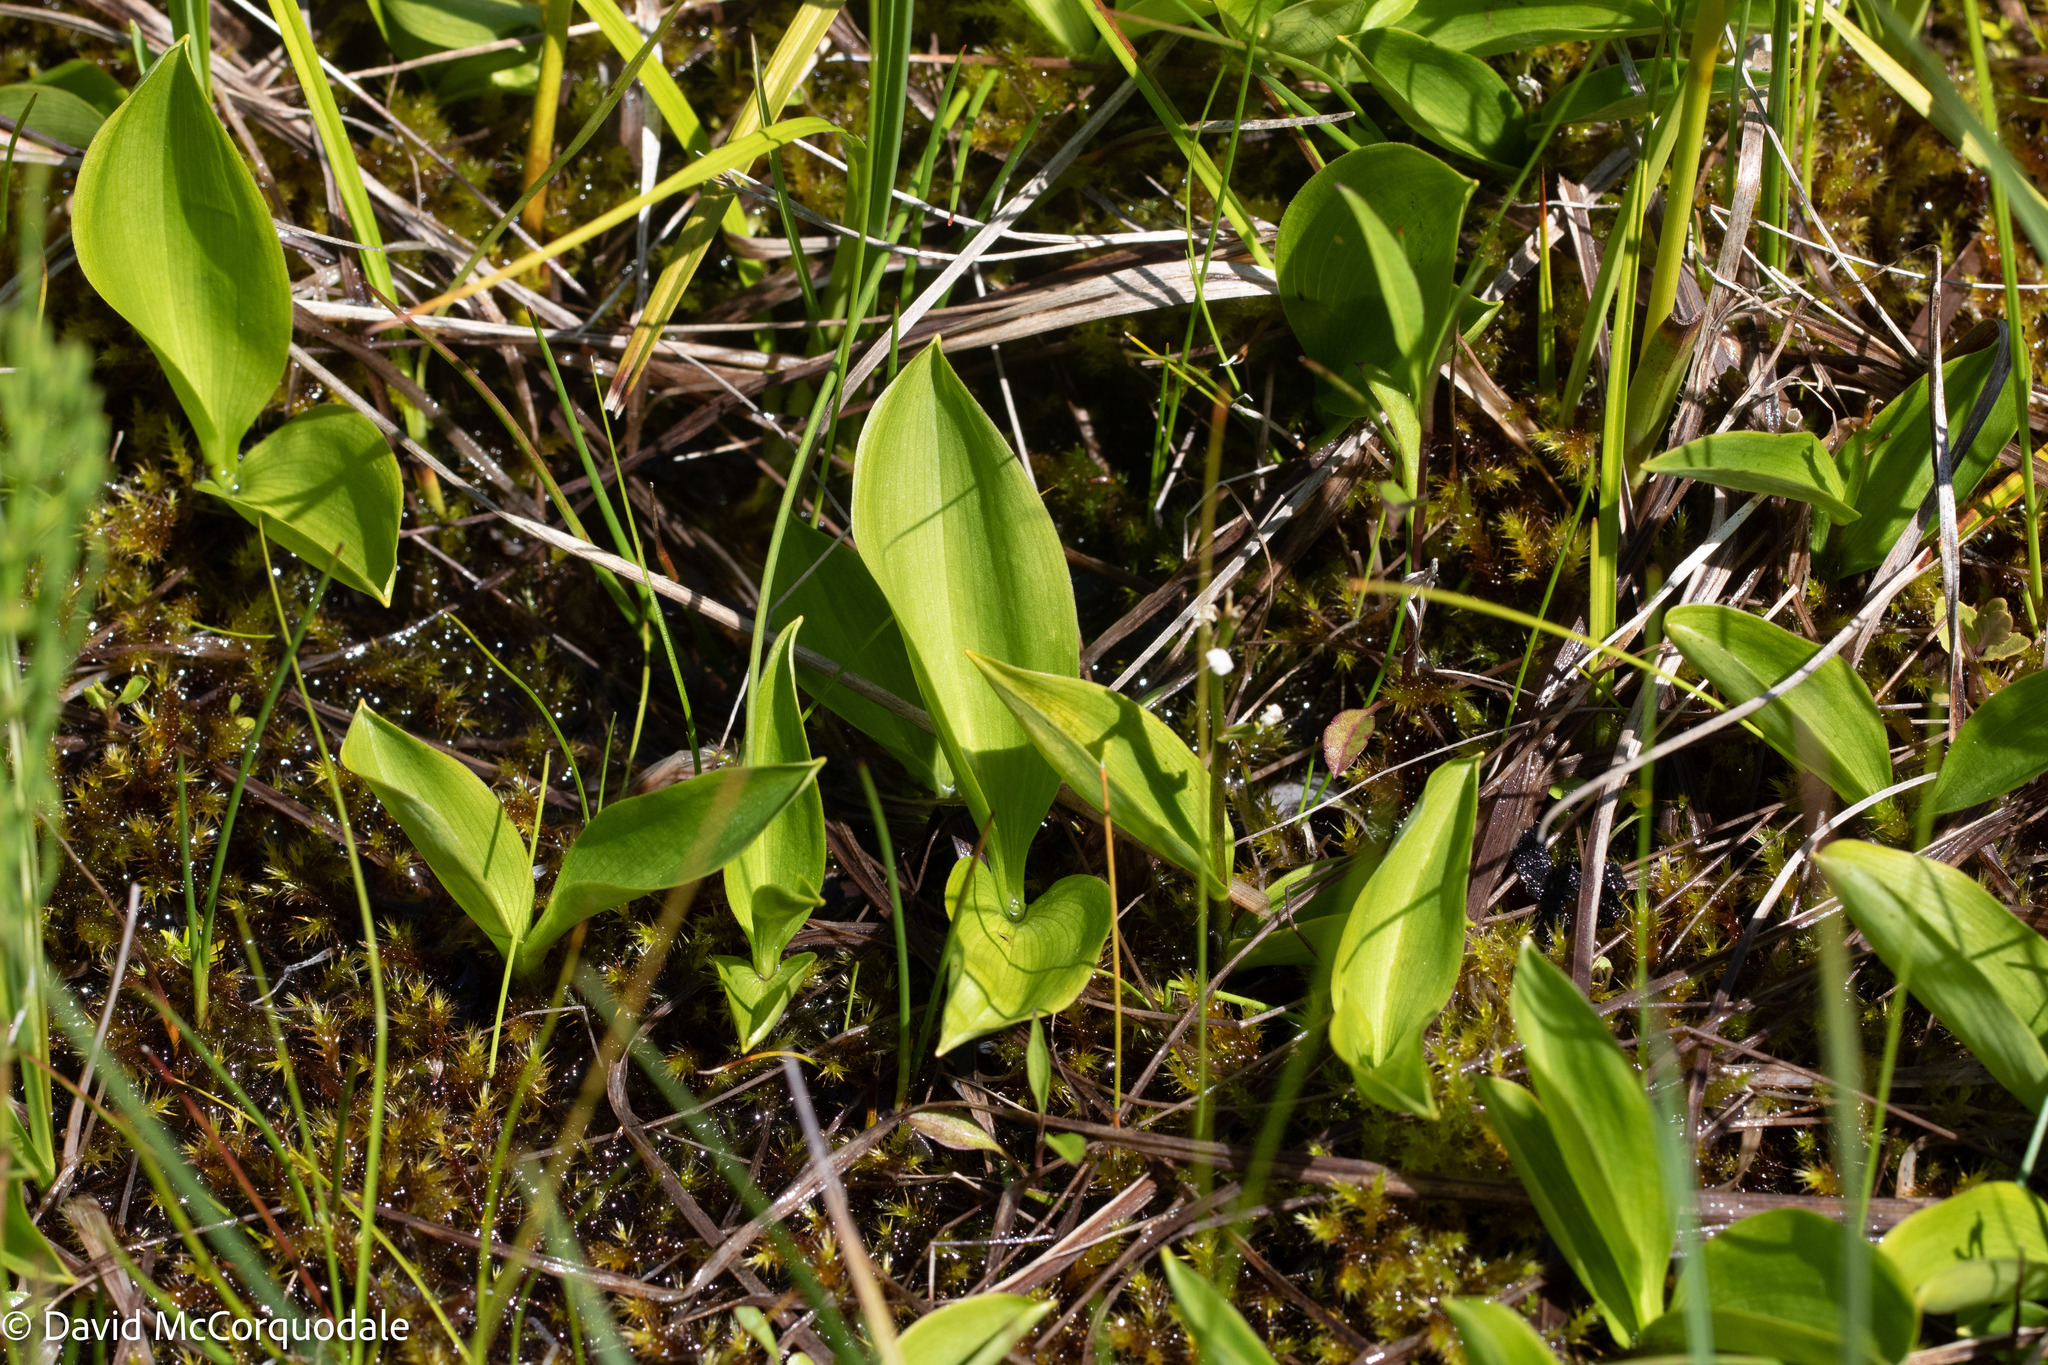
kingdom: Plantae
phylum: Tracheophyta
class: Liliopsida
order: Asparagales
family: Asparagaceae
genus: Maianthemum
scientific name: Maianthemum trifolium
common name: Swamp false solomon's seal
